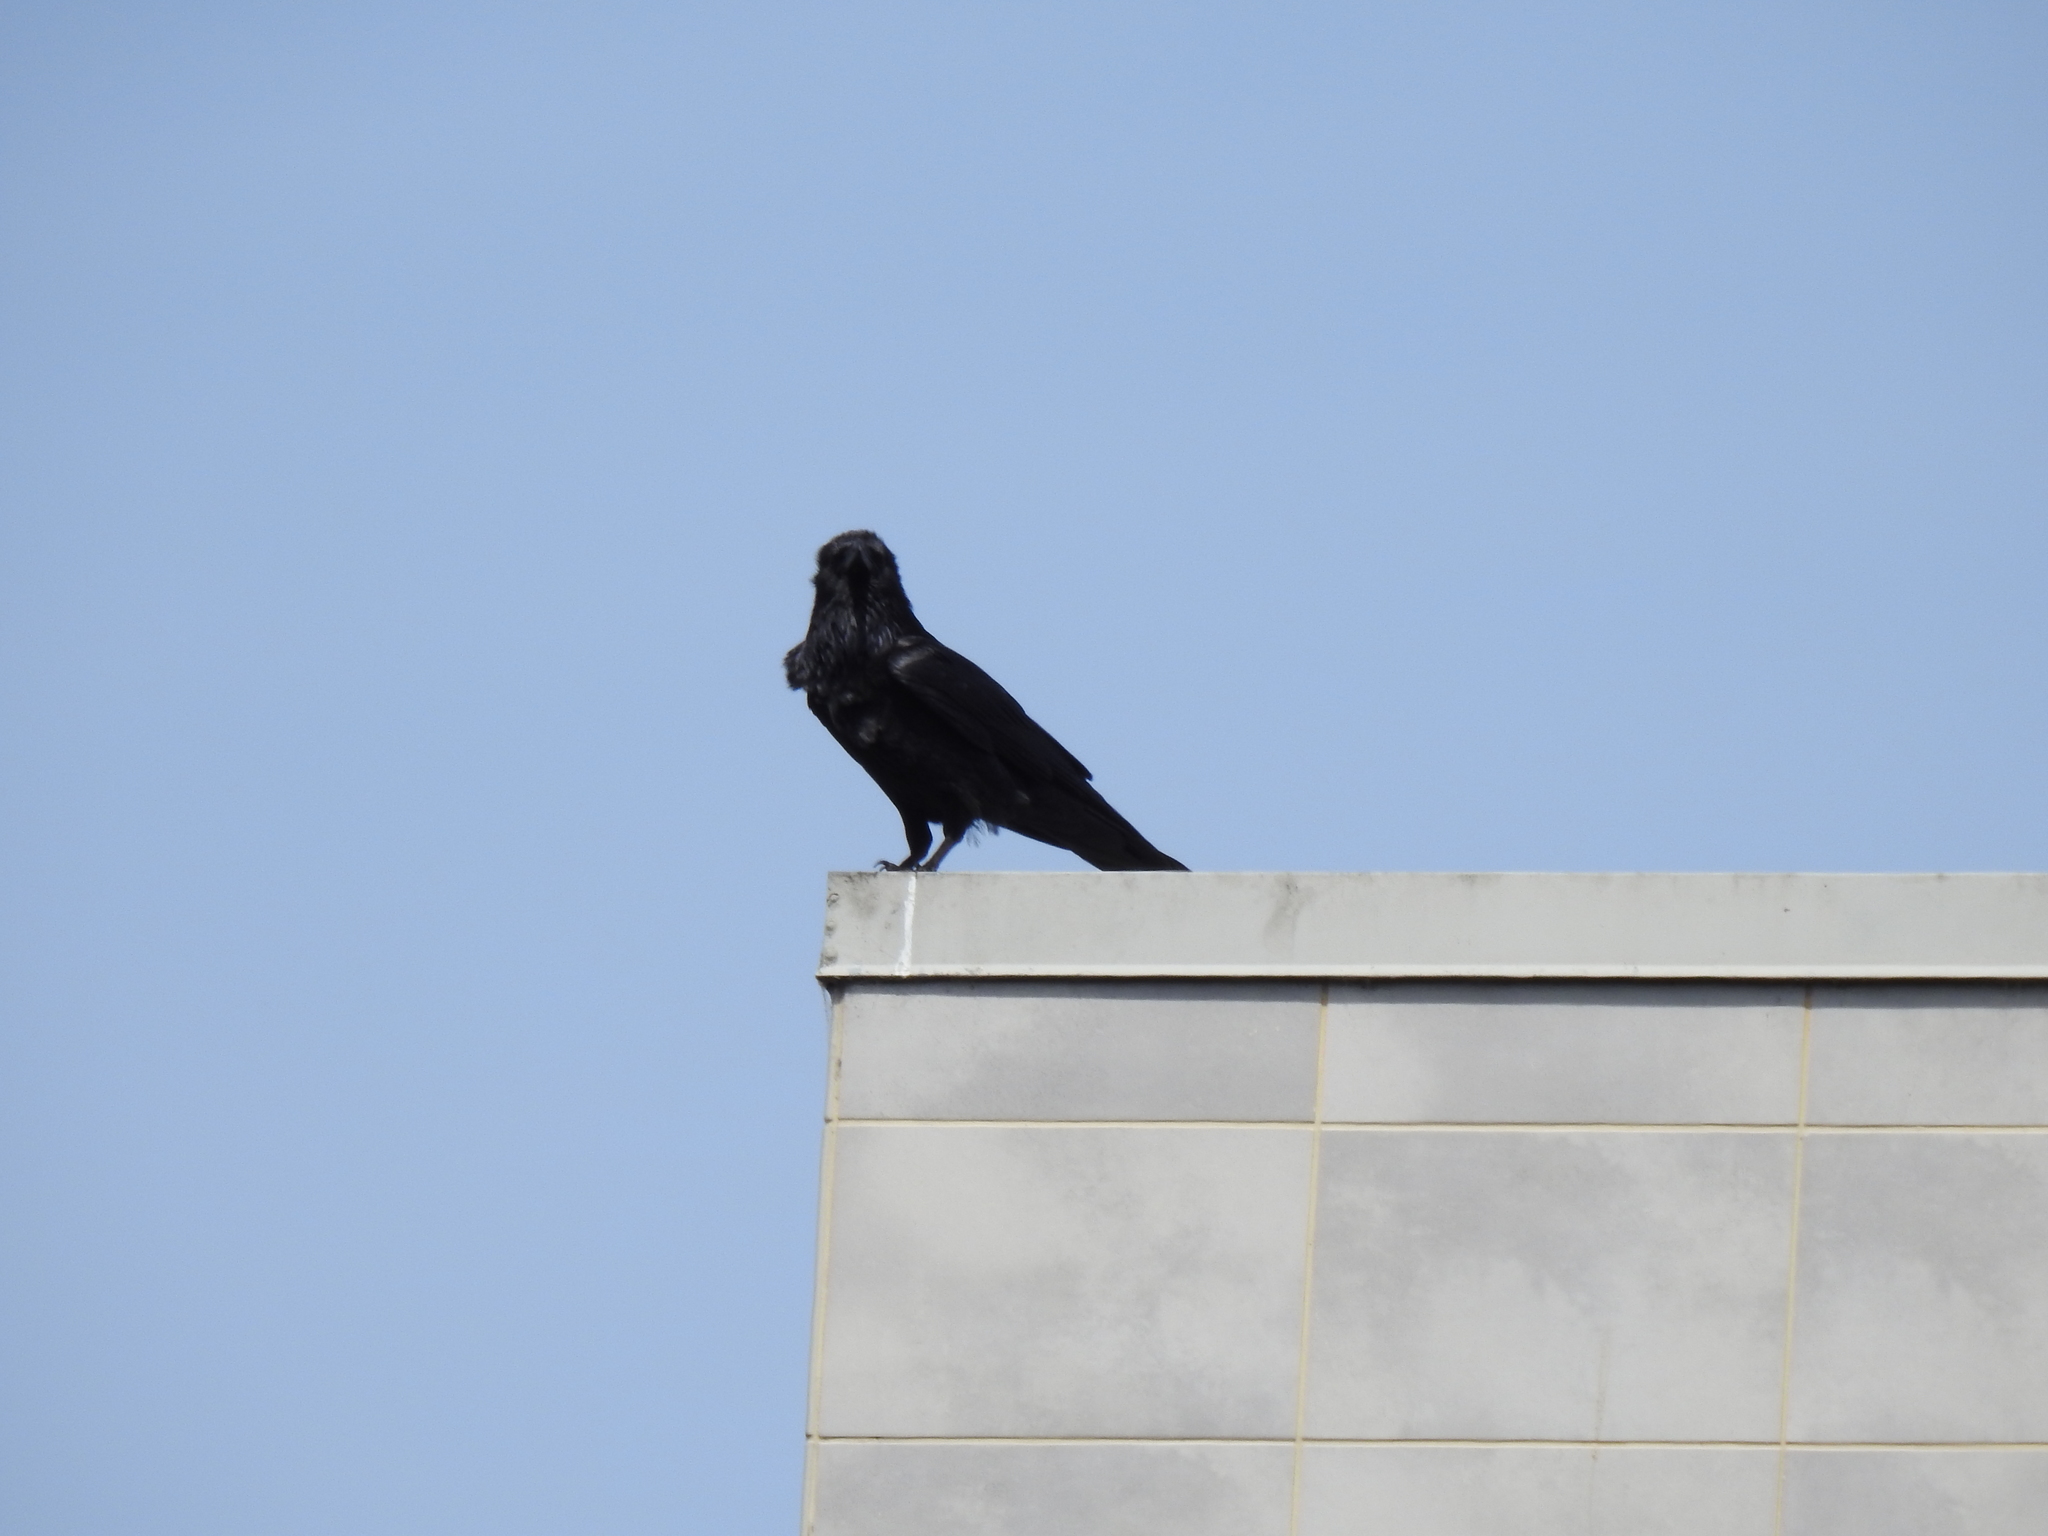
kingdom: Animalia
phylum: Chordata
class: Aves
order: Passeriformes
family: Corvidae
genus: Corvus
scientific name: Corvus brachyrhynchos
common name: American crow
